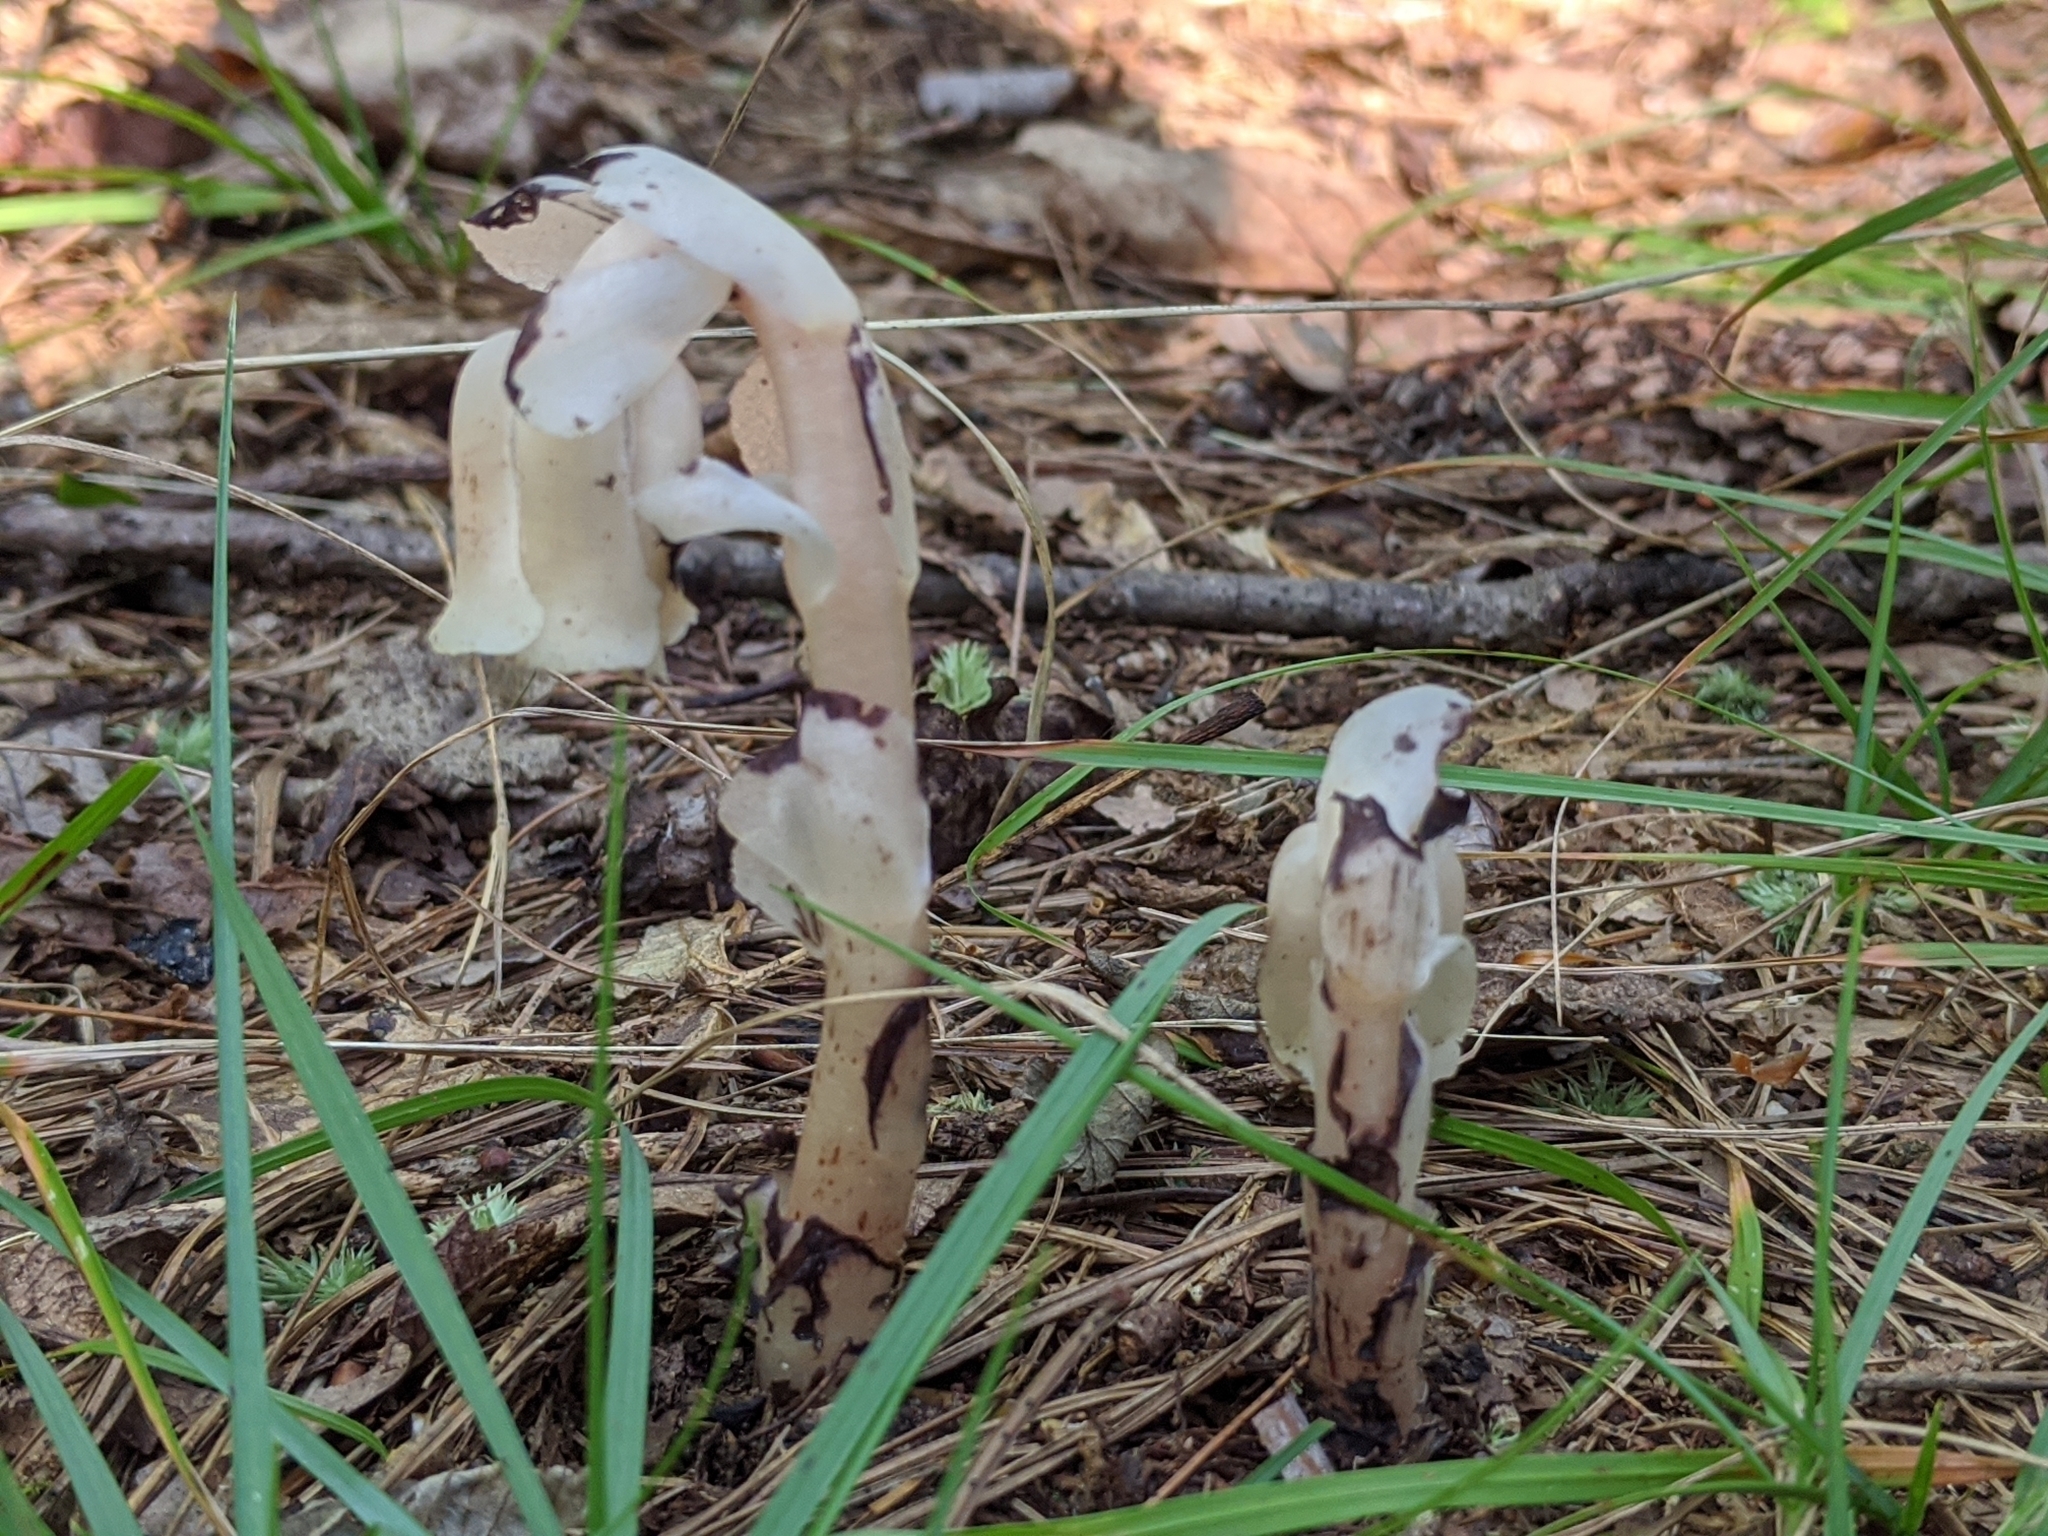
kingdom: Plantae
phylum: Tracheophyta
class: Magnoliopsida
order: Ericales
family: Ericaceae
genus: Monotropa
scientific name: Monotropa uniflora
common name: Convulsion root
